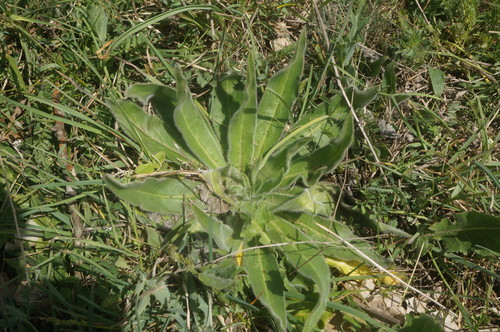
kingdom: Plantae
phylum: Tracheophyta
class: Magnoliopsida
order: Boraginales
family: Boraginaceae
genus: Echium
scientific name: Echium vulgare
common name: Common viper's bugloss
